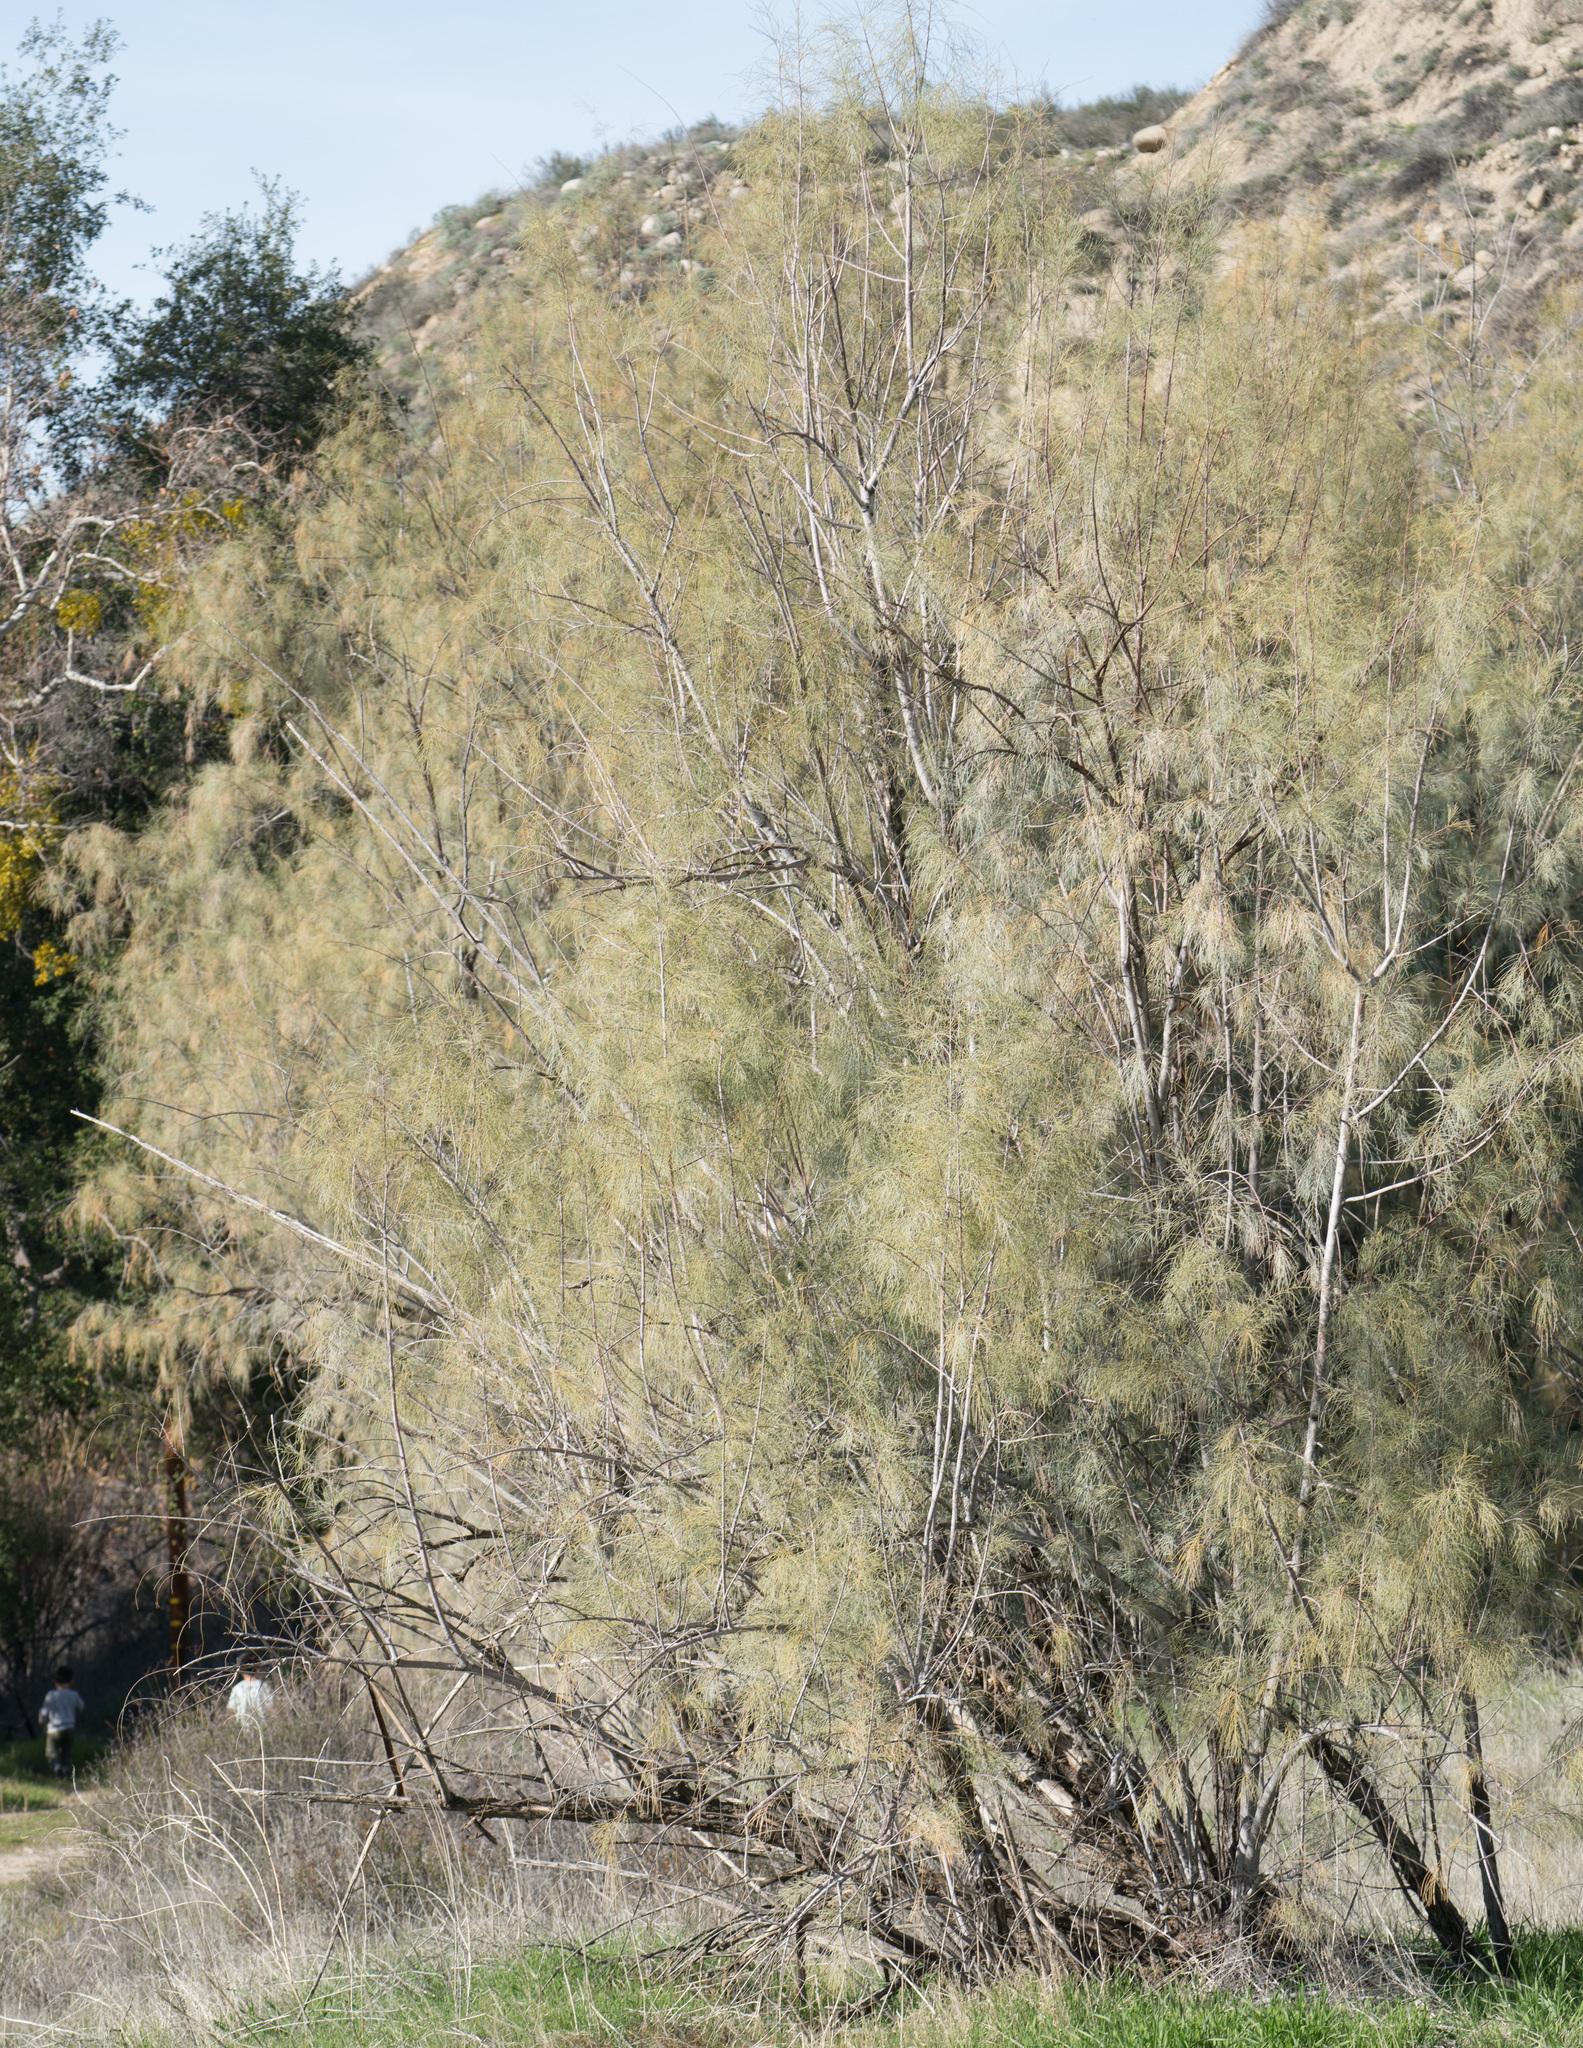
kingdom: Plantae
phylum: Tracheophyta
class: Magnoliopsida
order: Caryophyllales
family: Tamaricaceae
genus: Tamarix
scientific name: Tamarix aphylla
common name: Athel tamarisk
